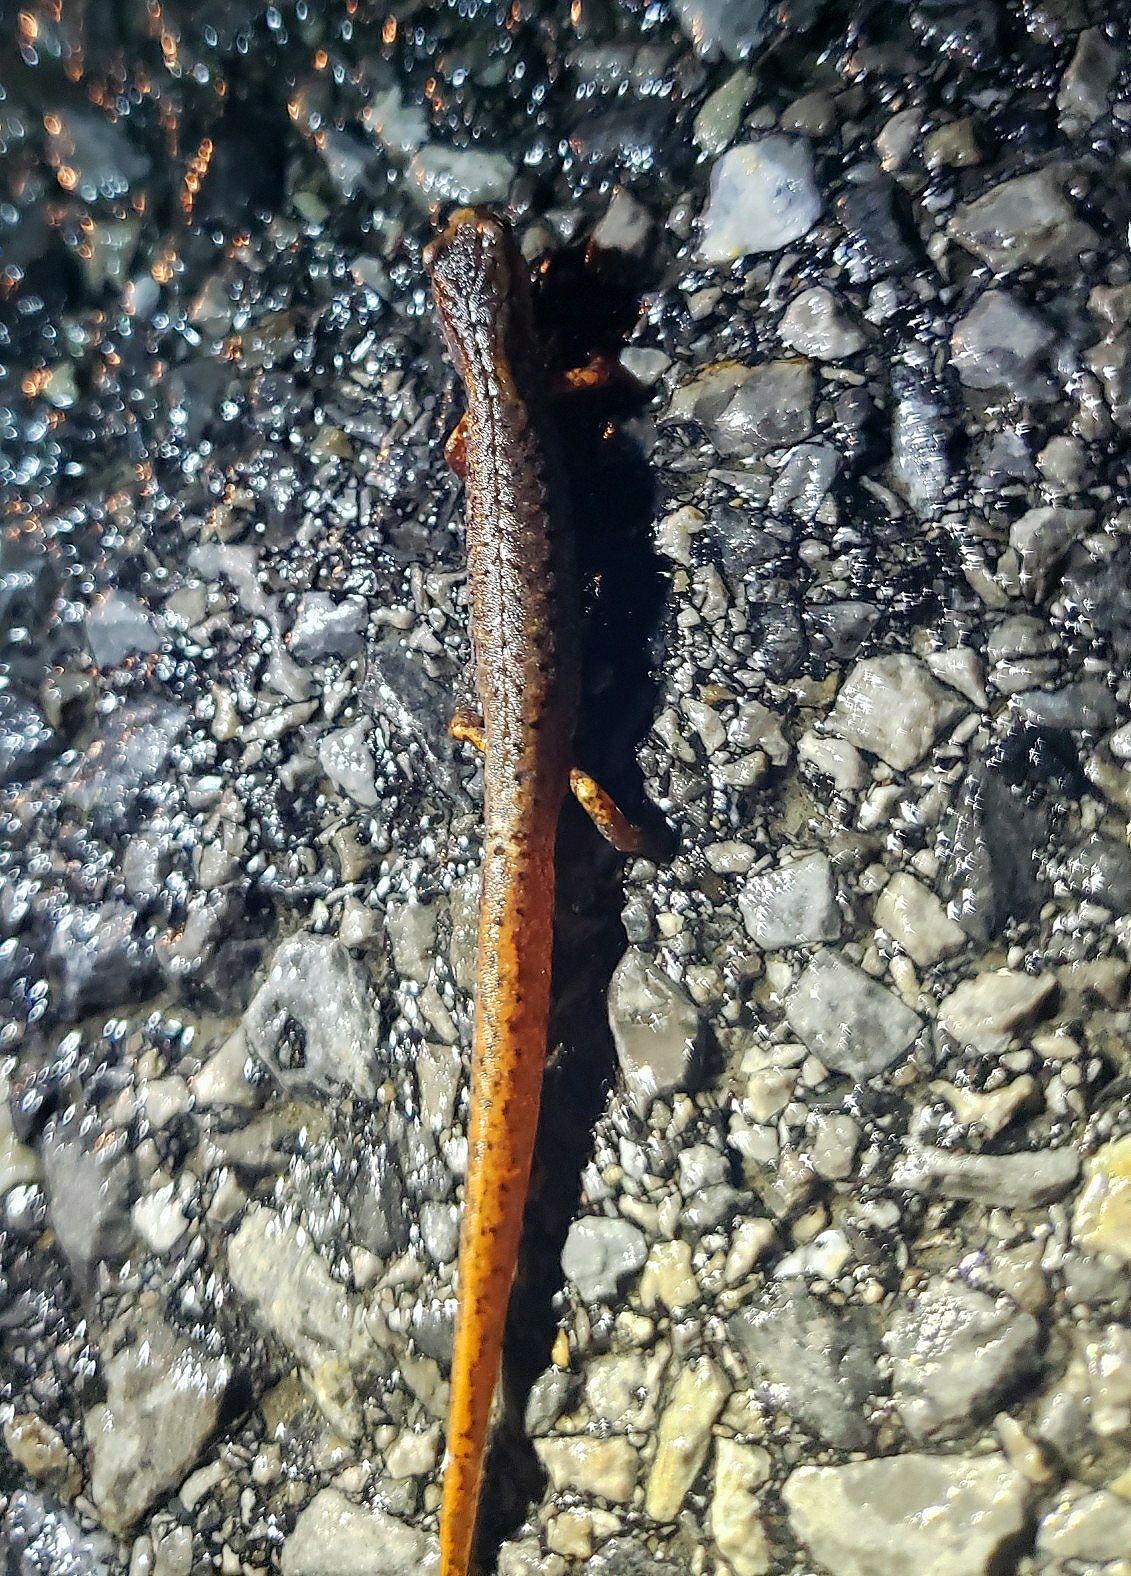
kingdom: Animalia
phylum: Chordata
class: Amphibia
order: Caudata
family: Plethodontidae
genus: Hemidactylium
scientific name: Hemidactylium scutatum
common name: Four-toed salamander
